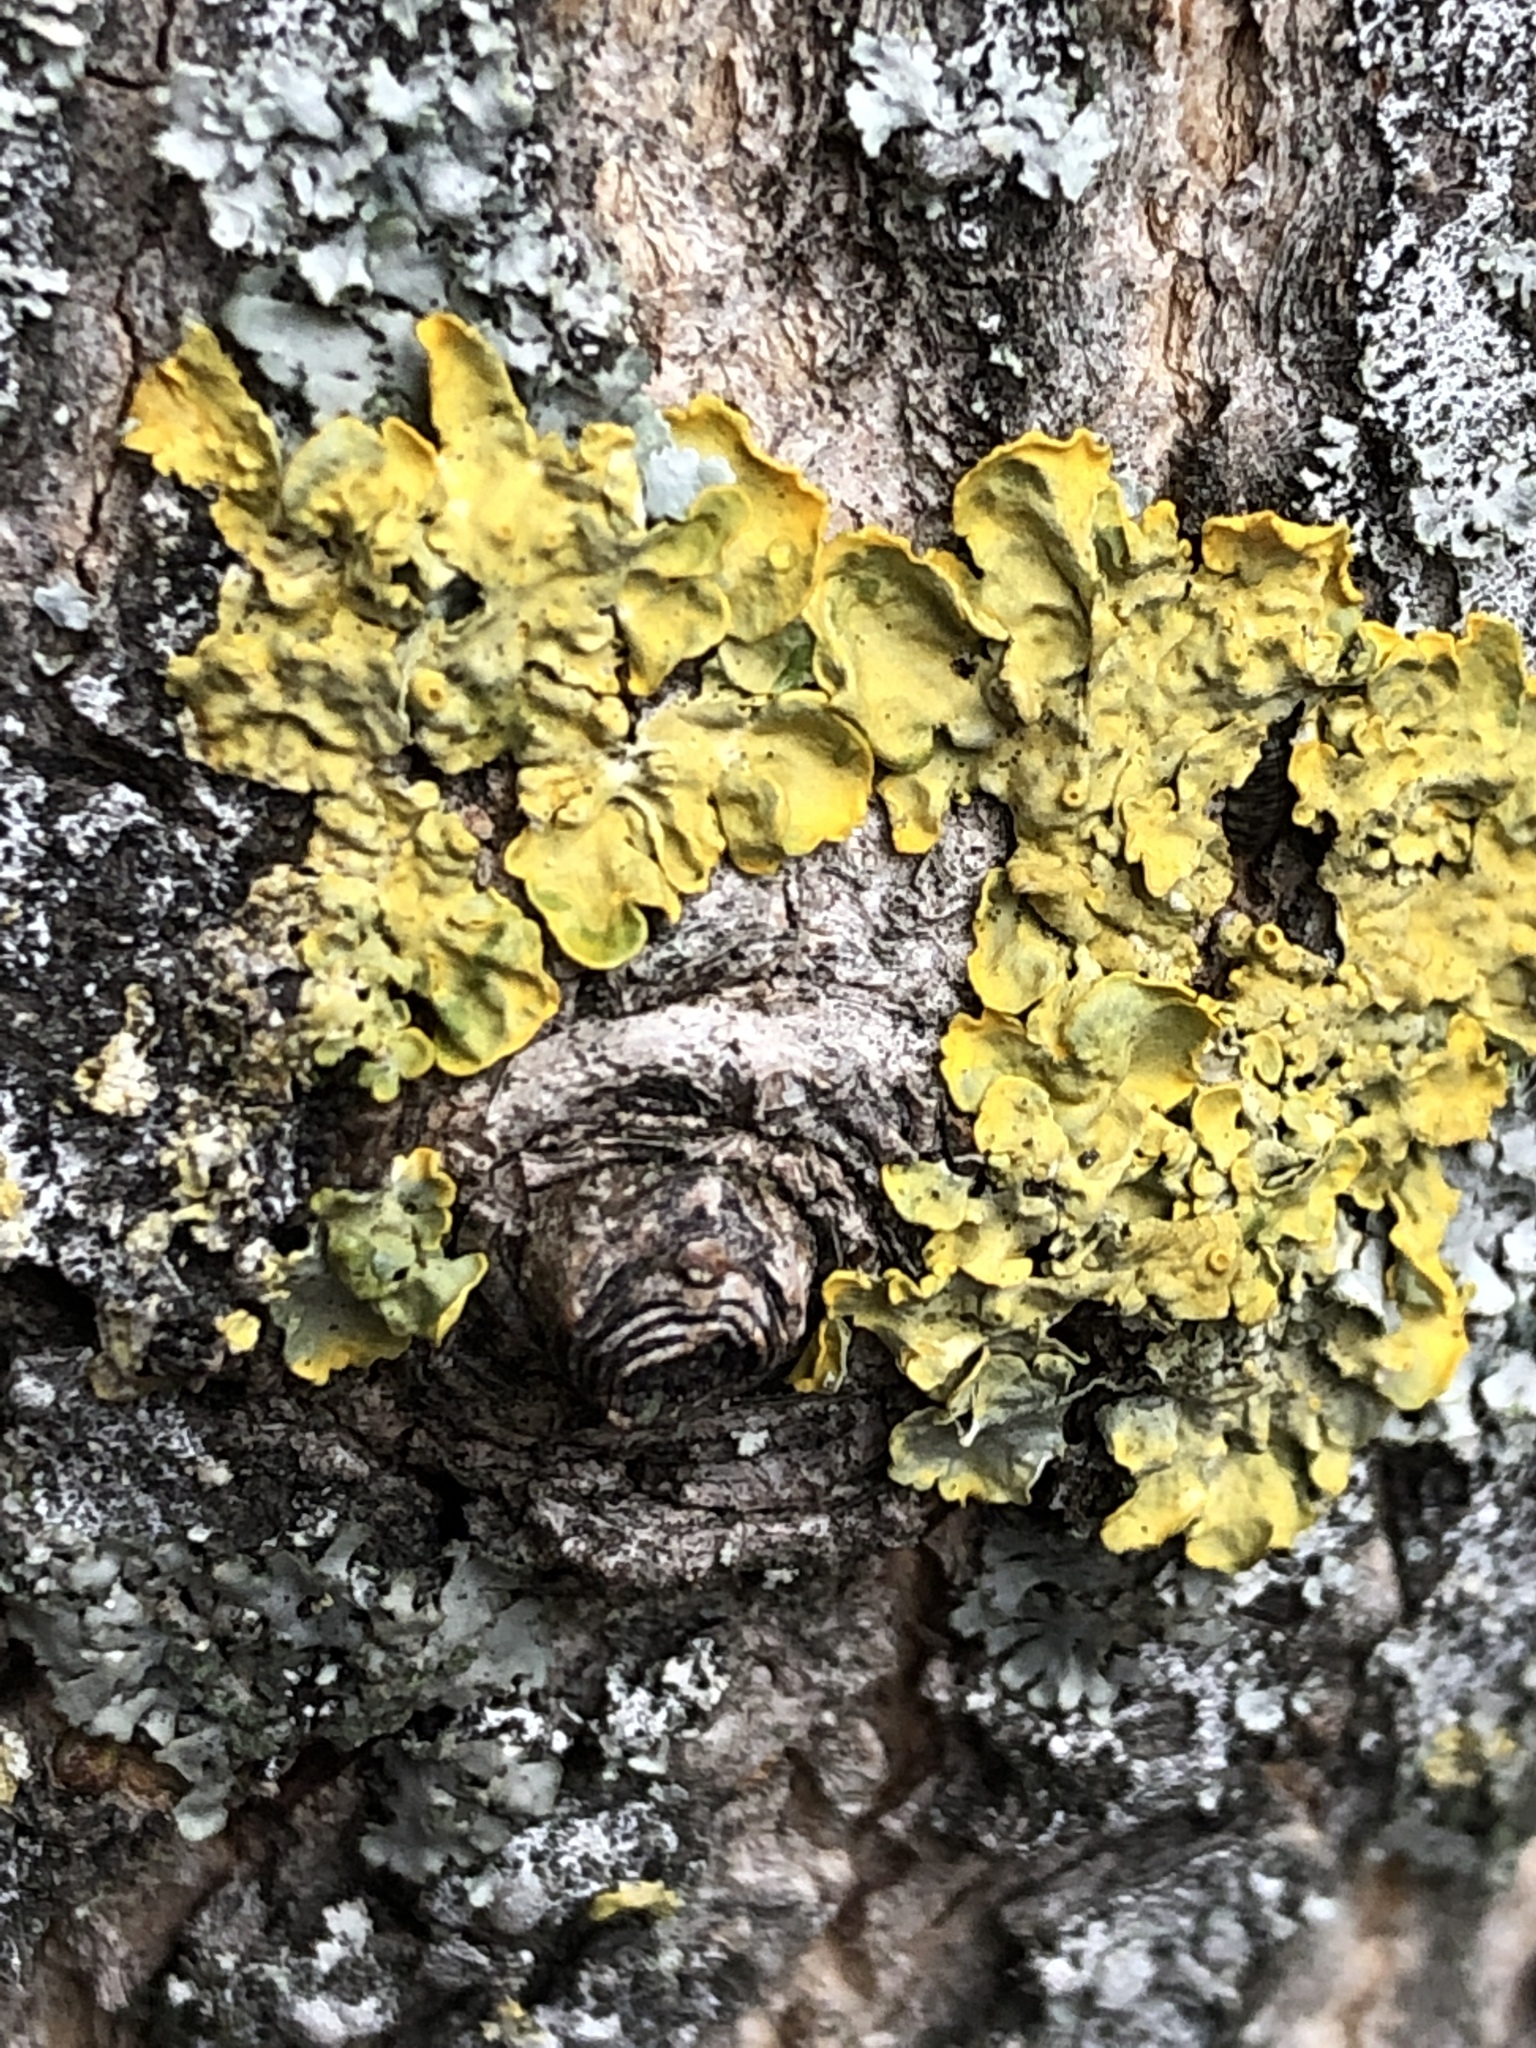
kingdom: Fungi
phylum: Ascomycota
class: Lecanoromycetes
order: Teloschistales
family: Teloschistaceae
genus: Xanthoria
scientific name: Xanthoria parietina
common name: Common orange lichen
